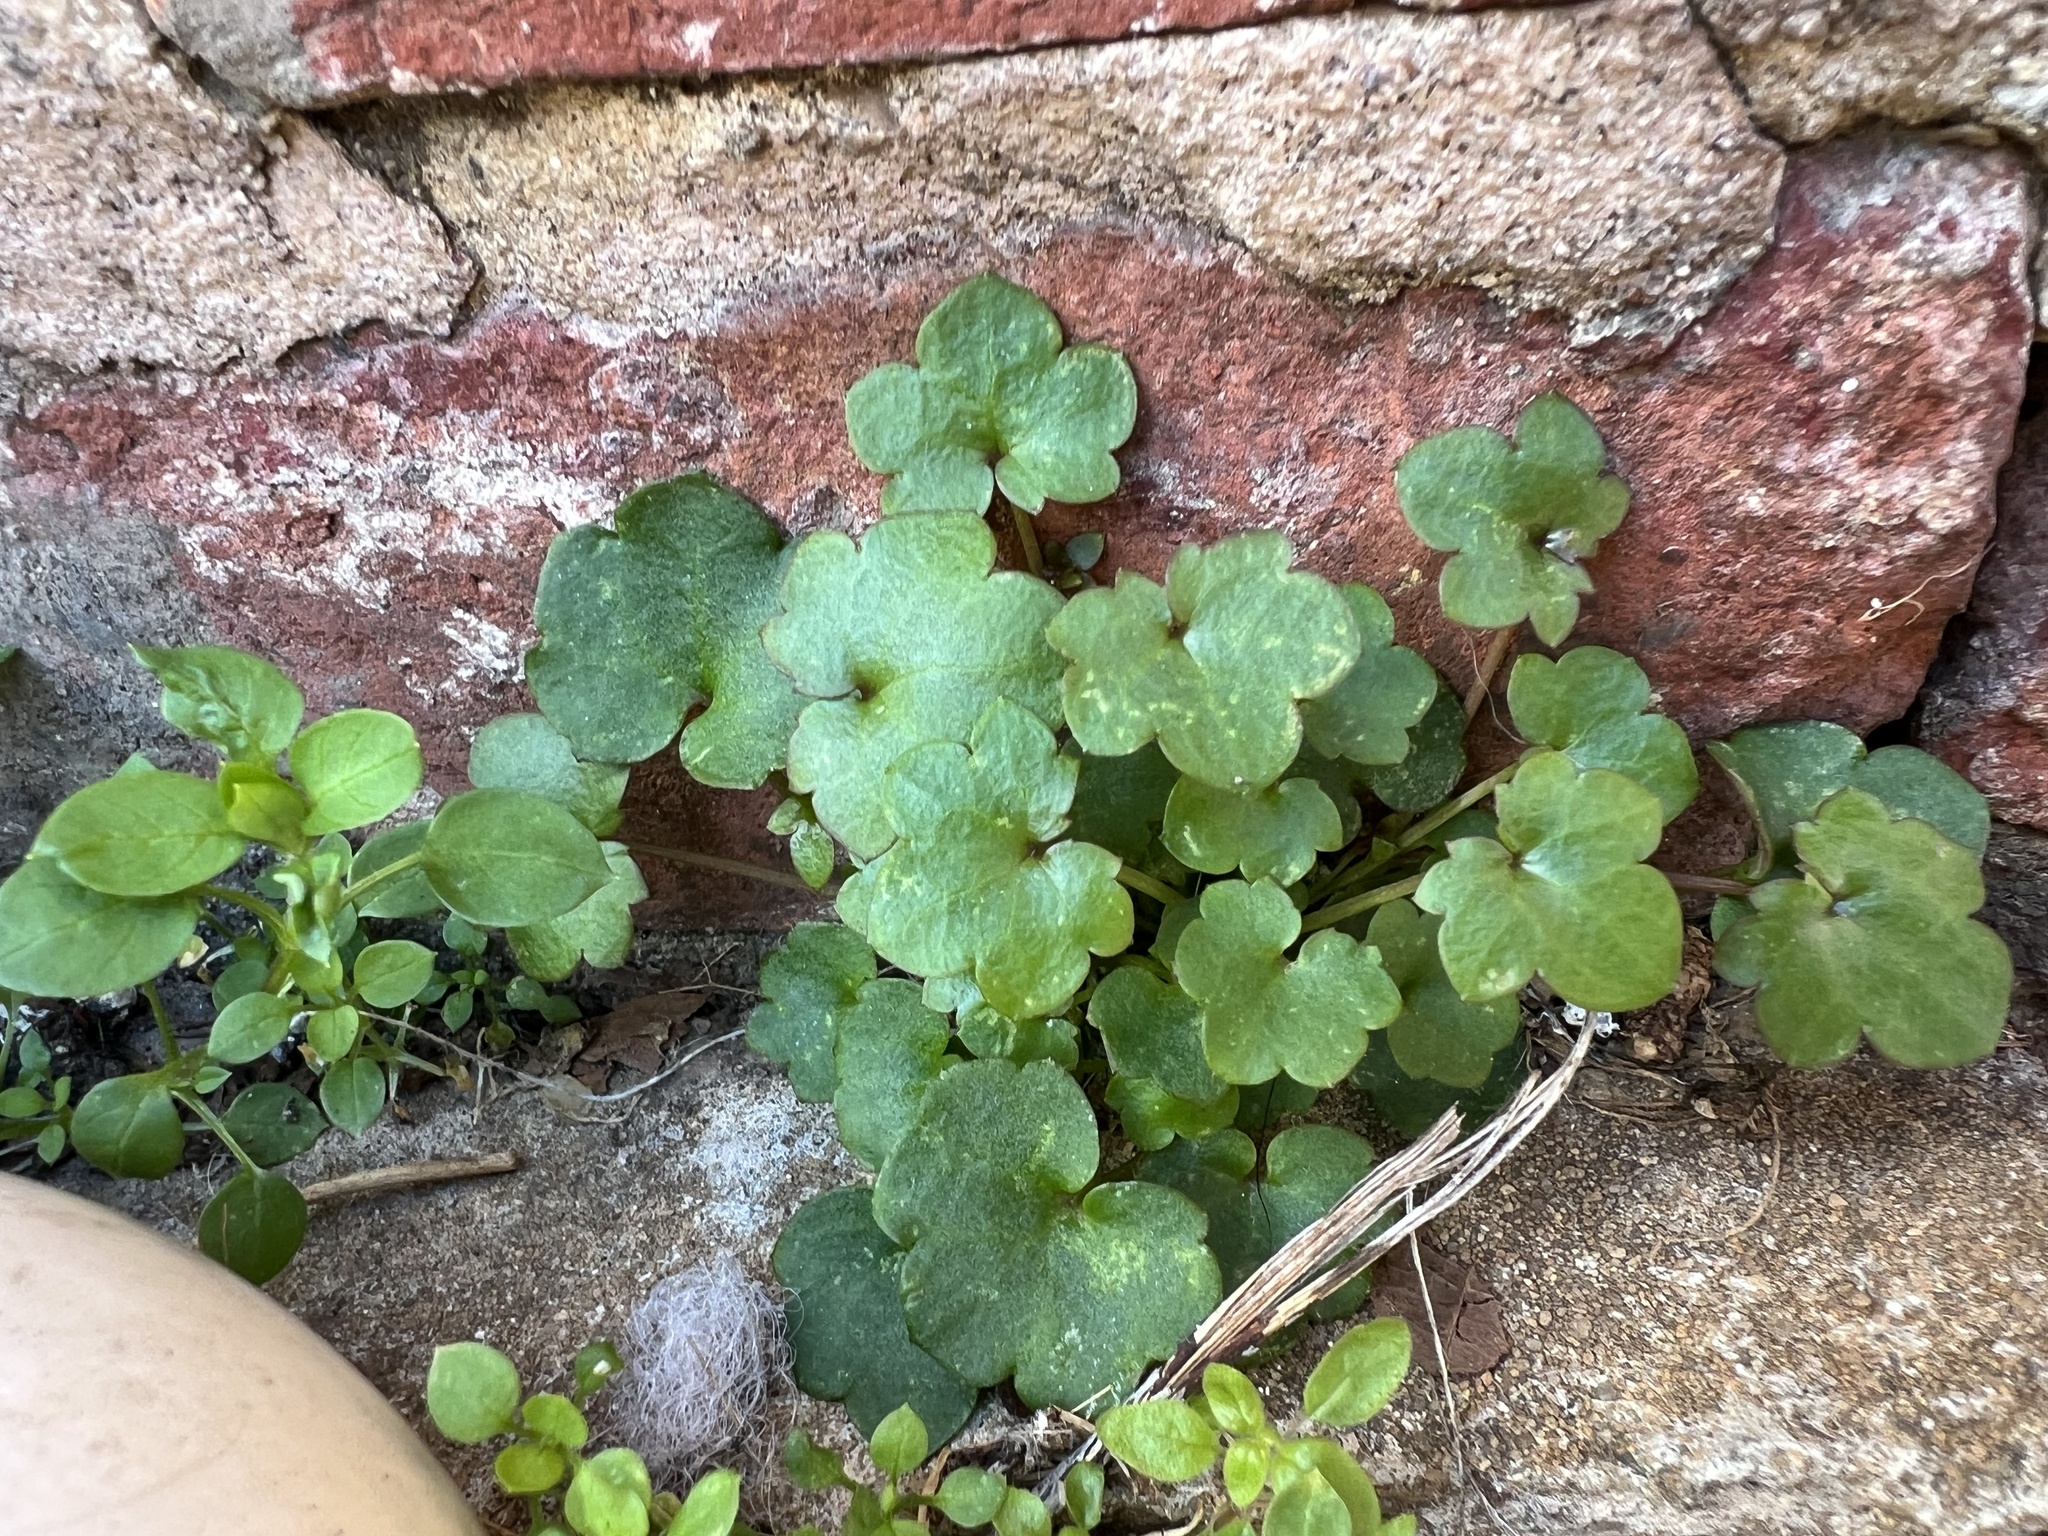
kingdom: Plantae
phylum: Tracheophyta
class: Magnoliopsida
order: Lamiales
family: Plantaginaceae
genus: Cymbalaria
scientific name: Cymbalaria muralis
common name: Ivy-leaved toadflax
